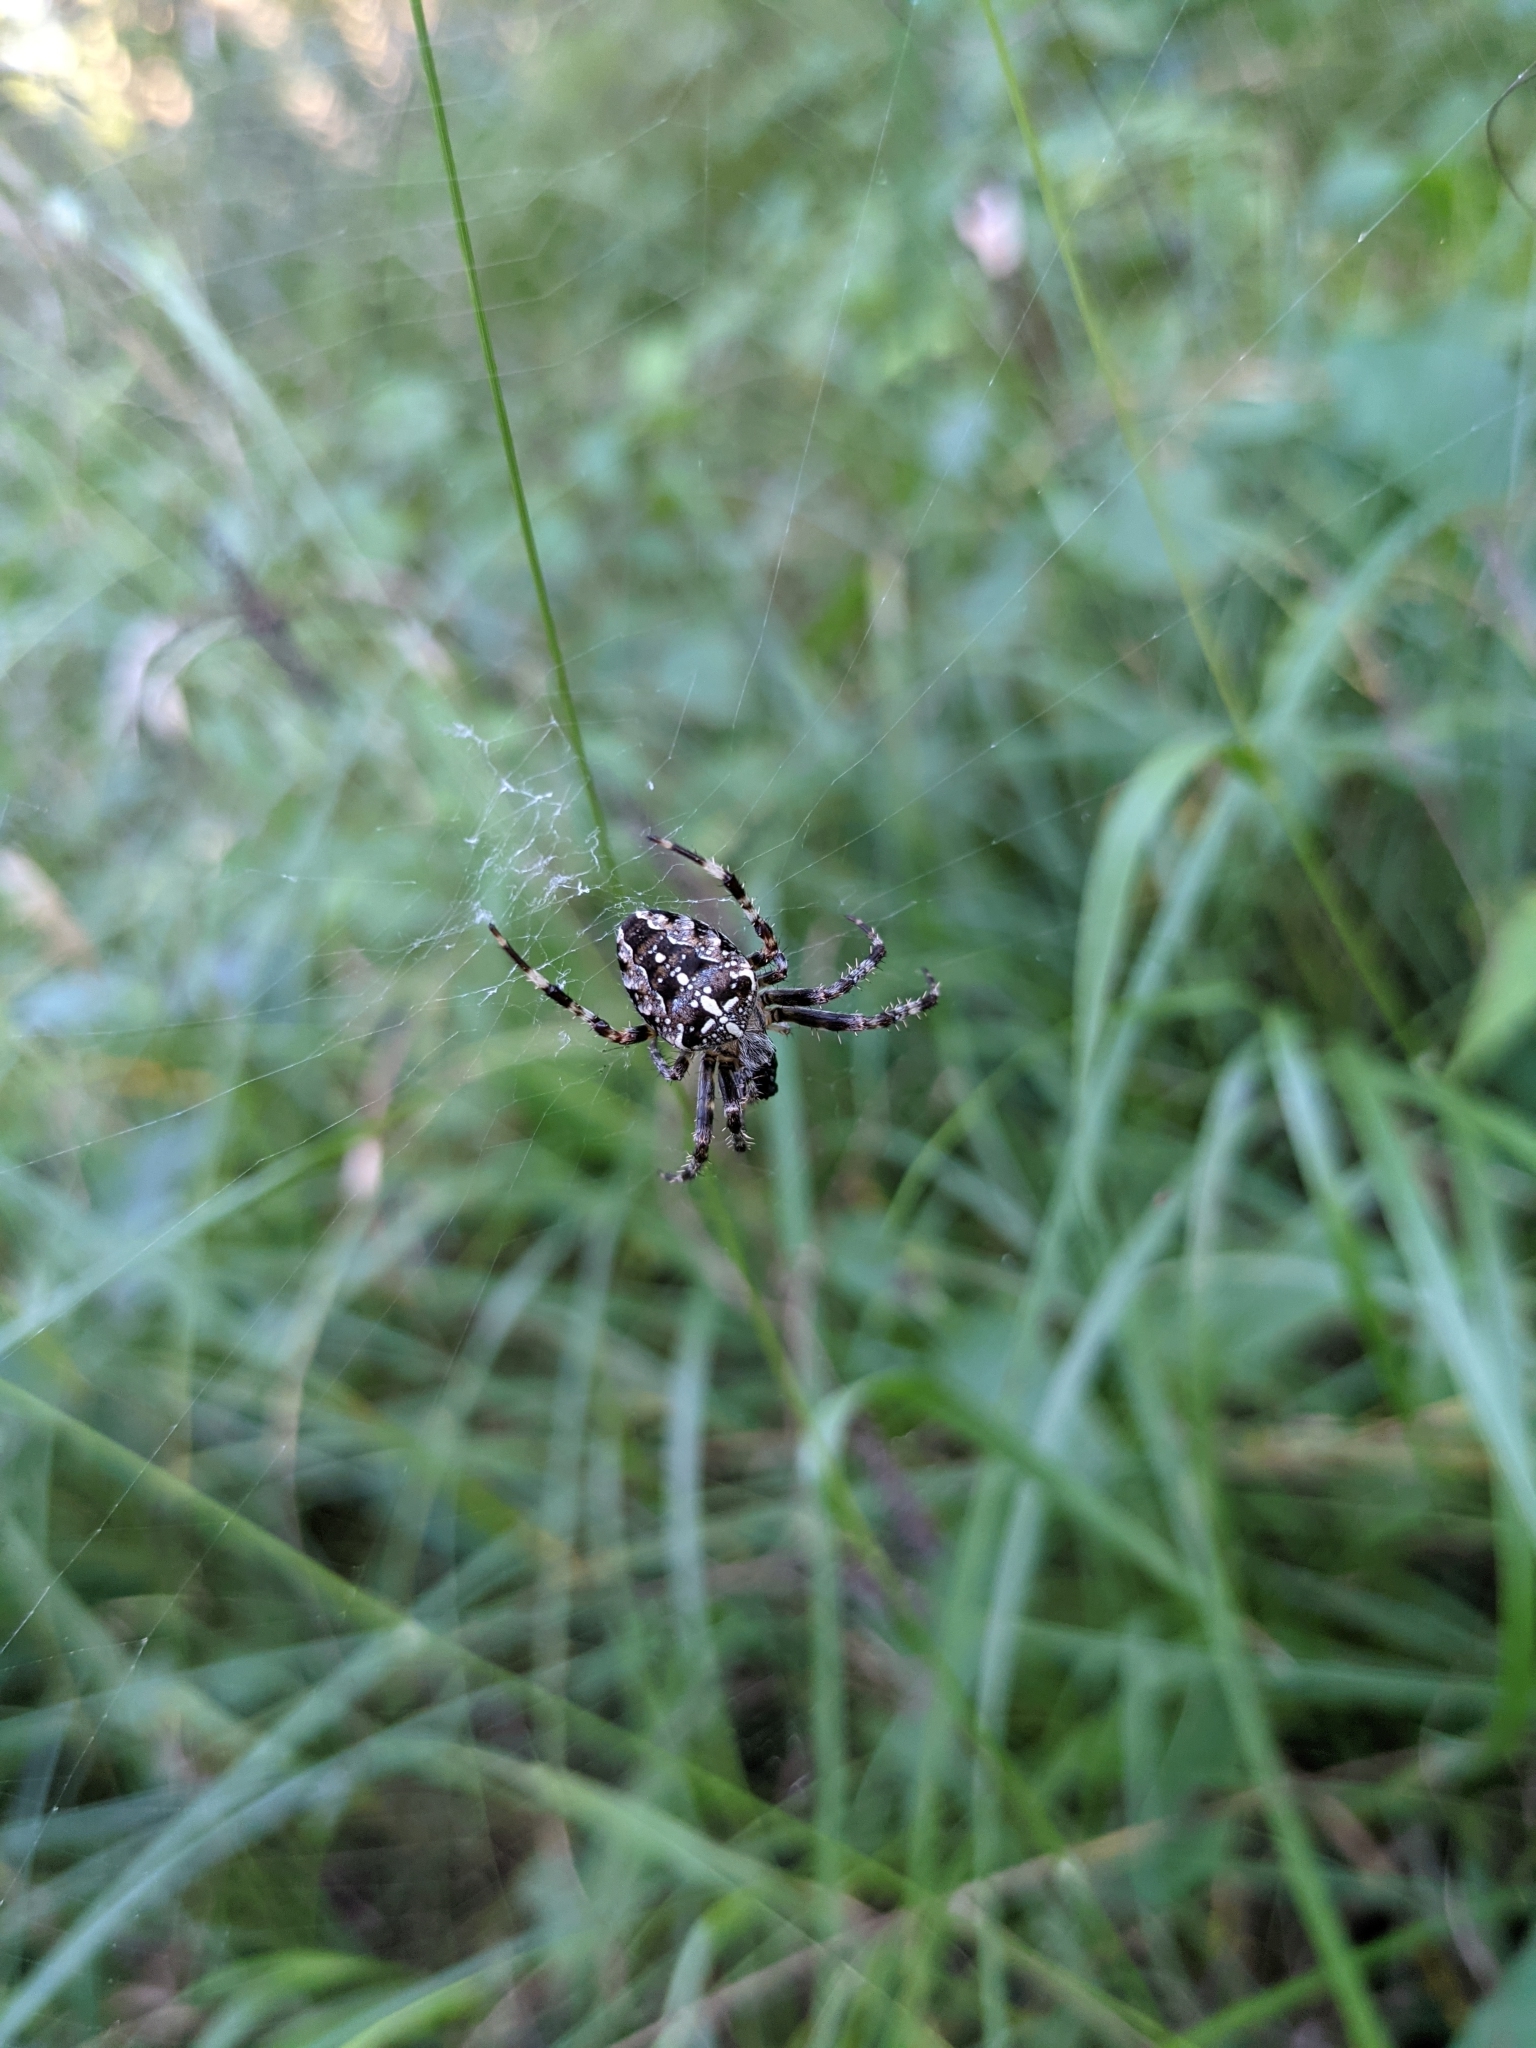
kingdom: Animalia
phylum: Arthropoda
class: Arachnida
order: Araneae
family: Araneidae
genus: Araneus
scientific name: Araneus diadematus
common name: Cross orbweaver
